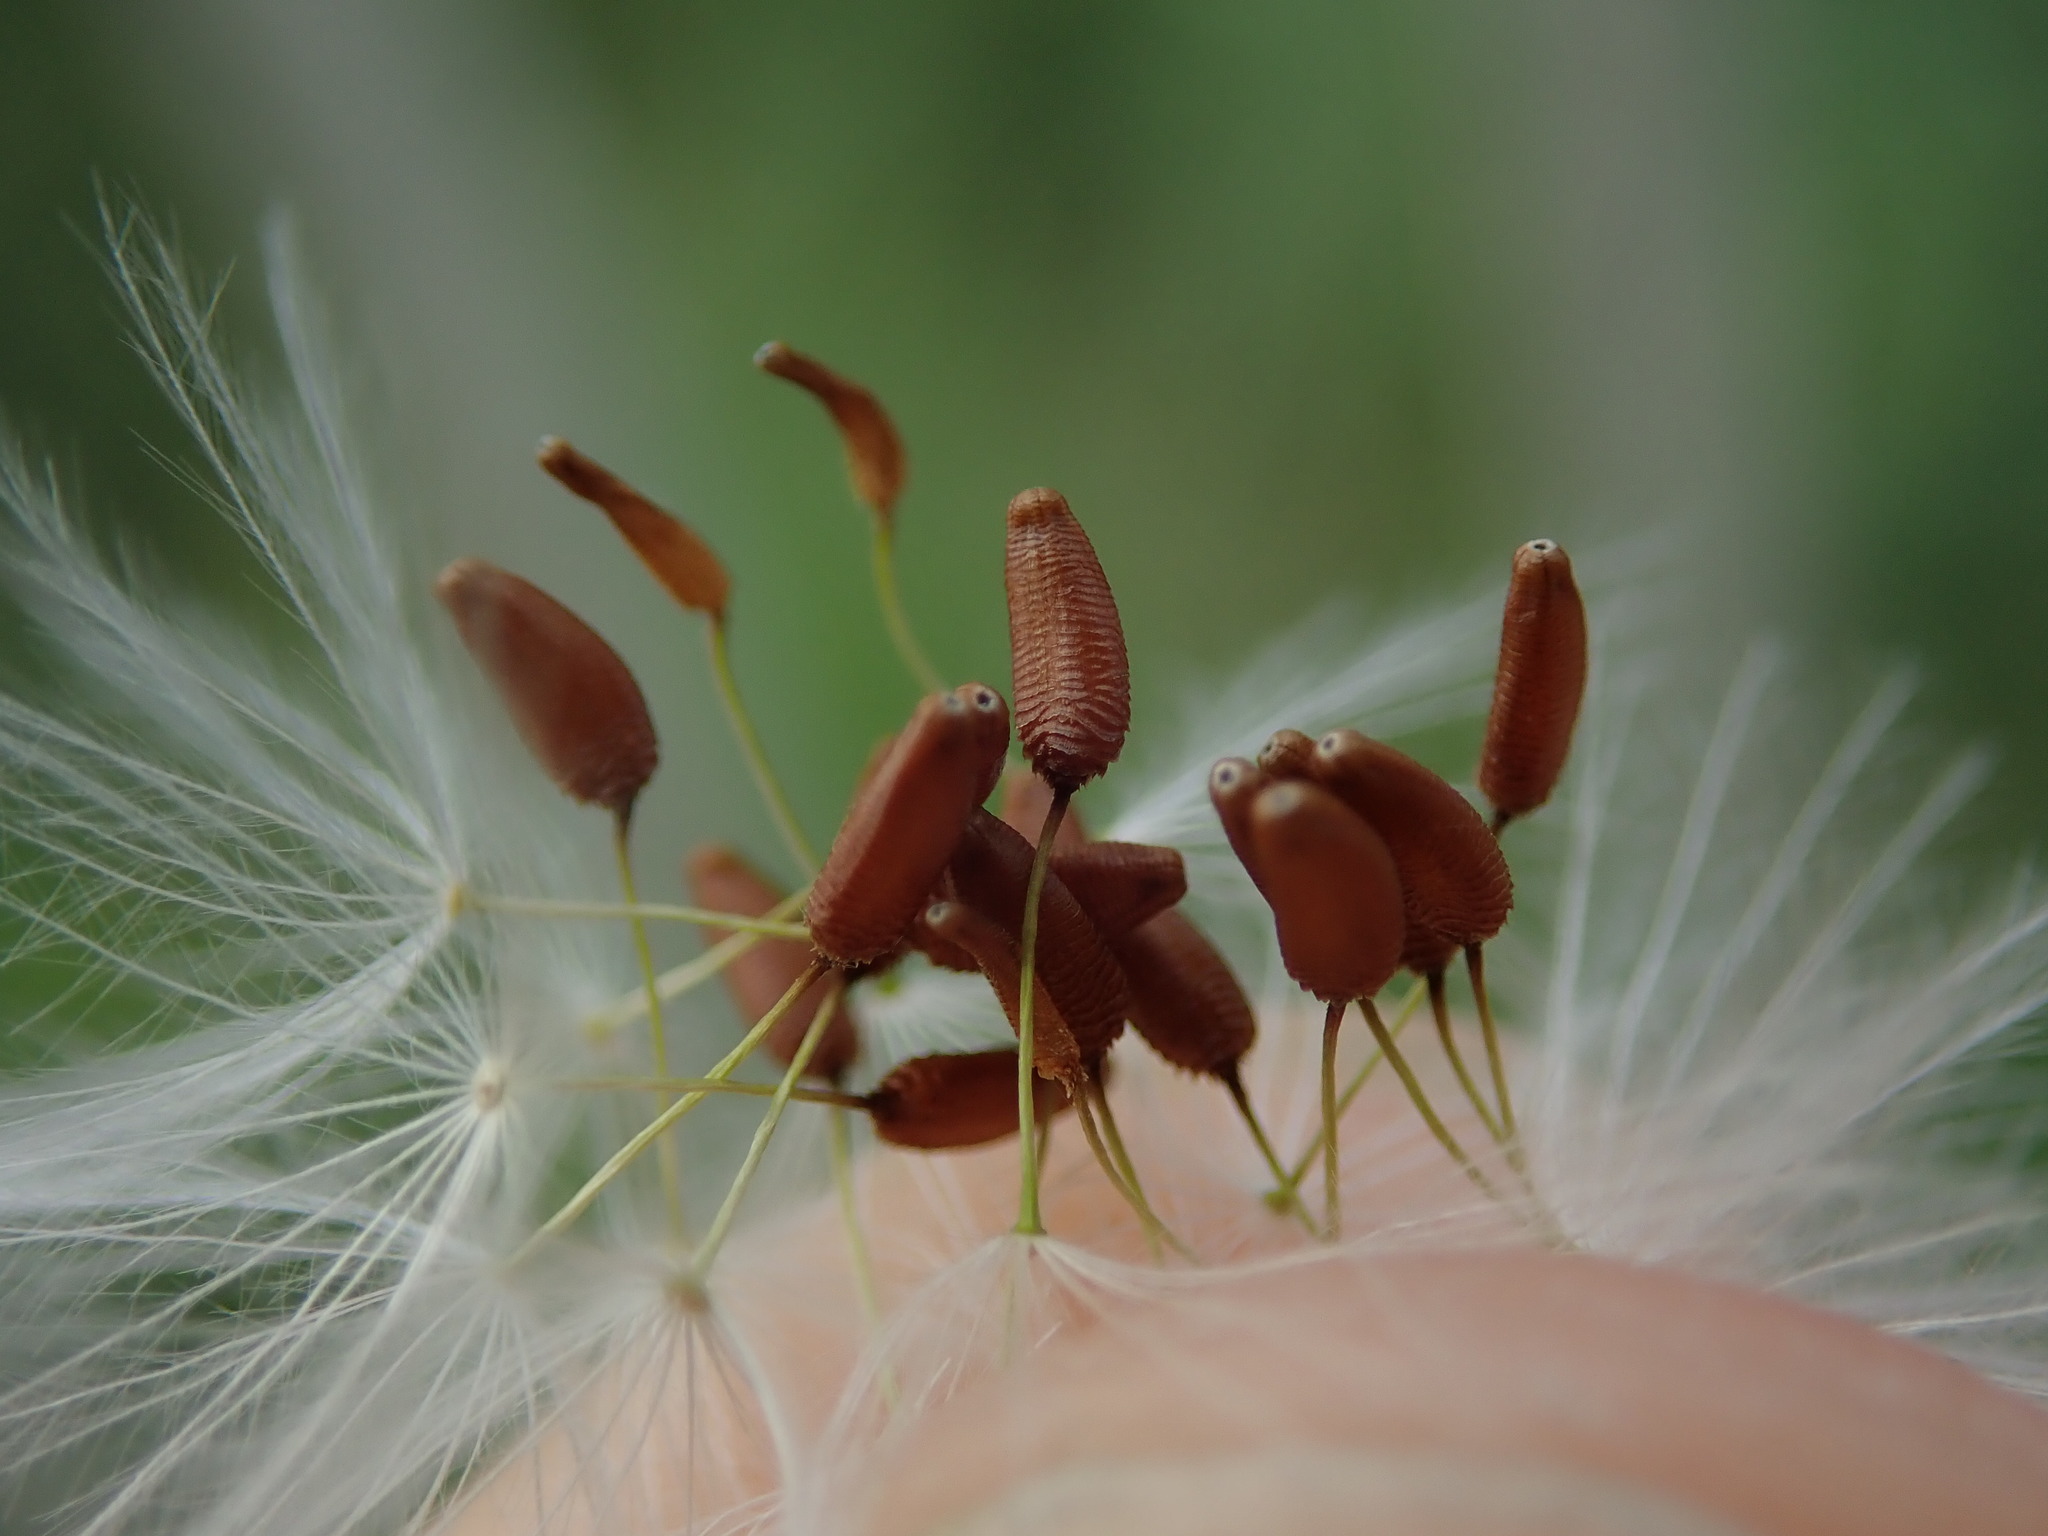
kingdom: Plantae
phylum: Tracheophyta
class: Magnoliopsida
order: Asterales
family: Asteraceae
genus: Helminthotheca
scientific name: Helminthotheca echioides
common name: Ox-tongue
